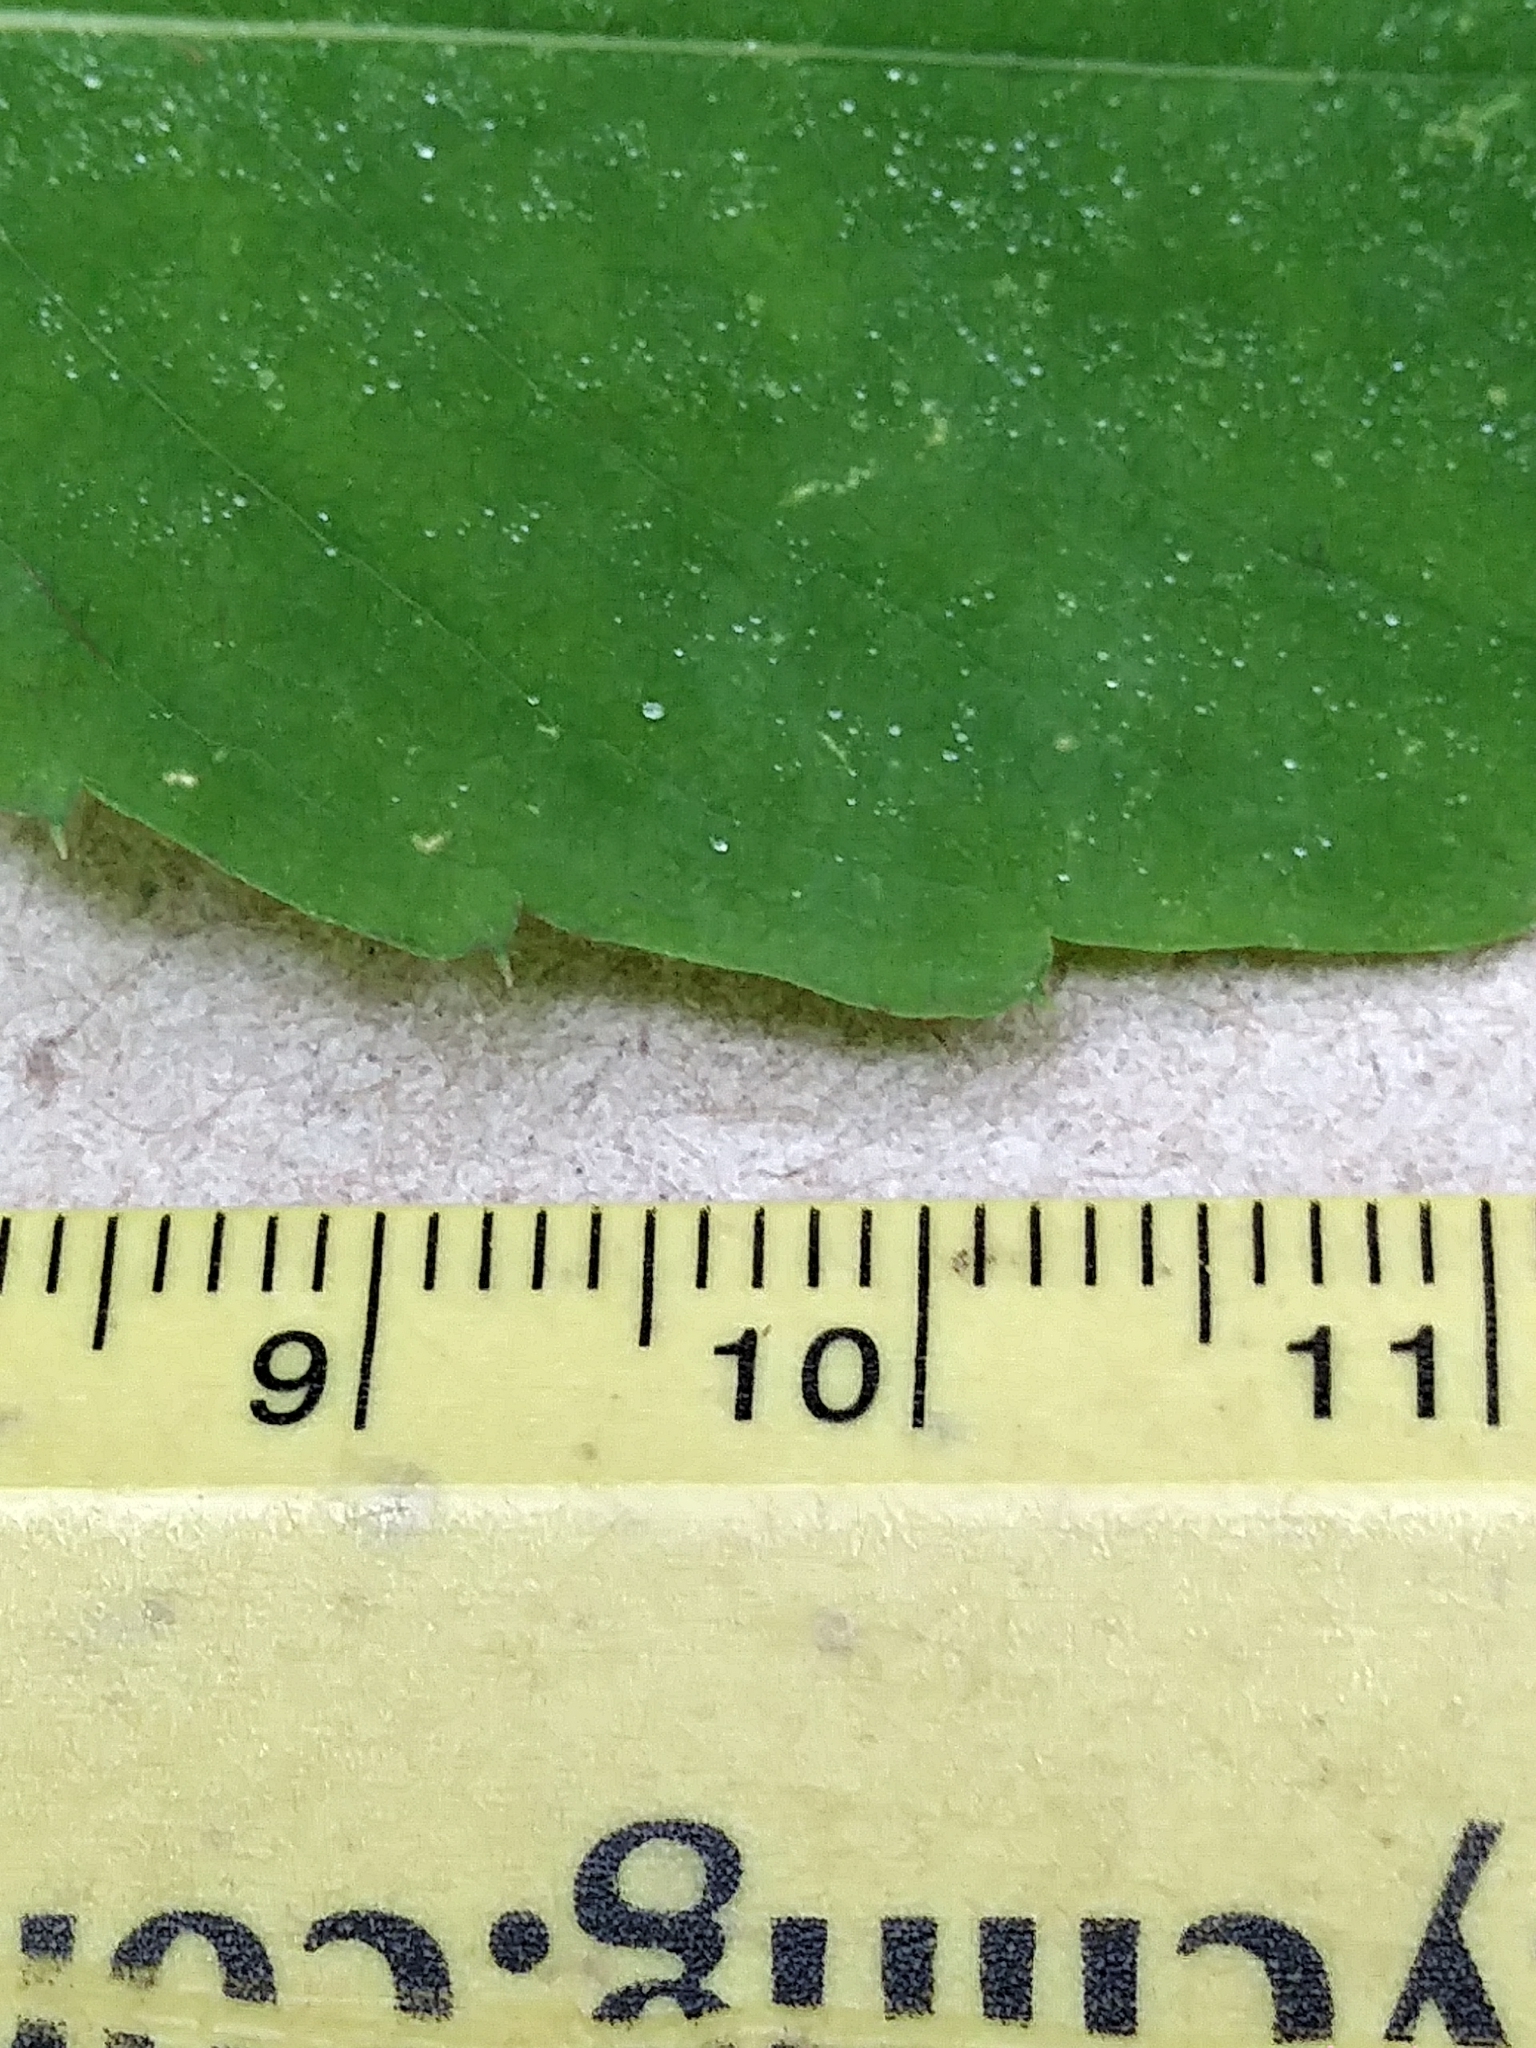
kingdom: Plantae
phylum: Tracheophyta
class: Magnoliopsida
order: Ericales
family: Balsaminaceae
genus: Impatiens
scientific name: Impatiens capensis
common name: Orange balsam
